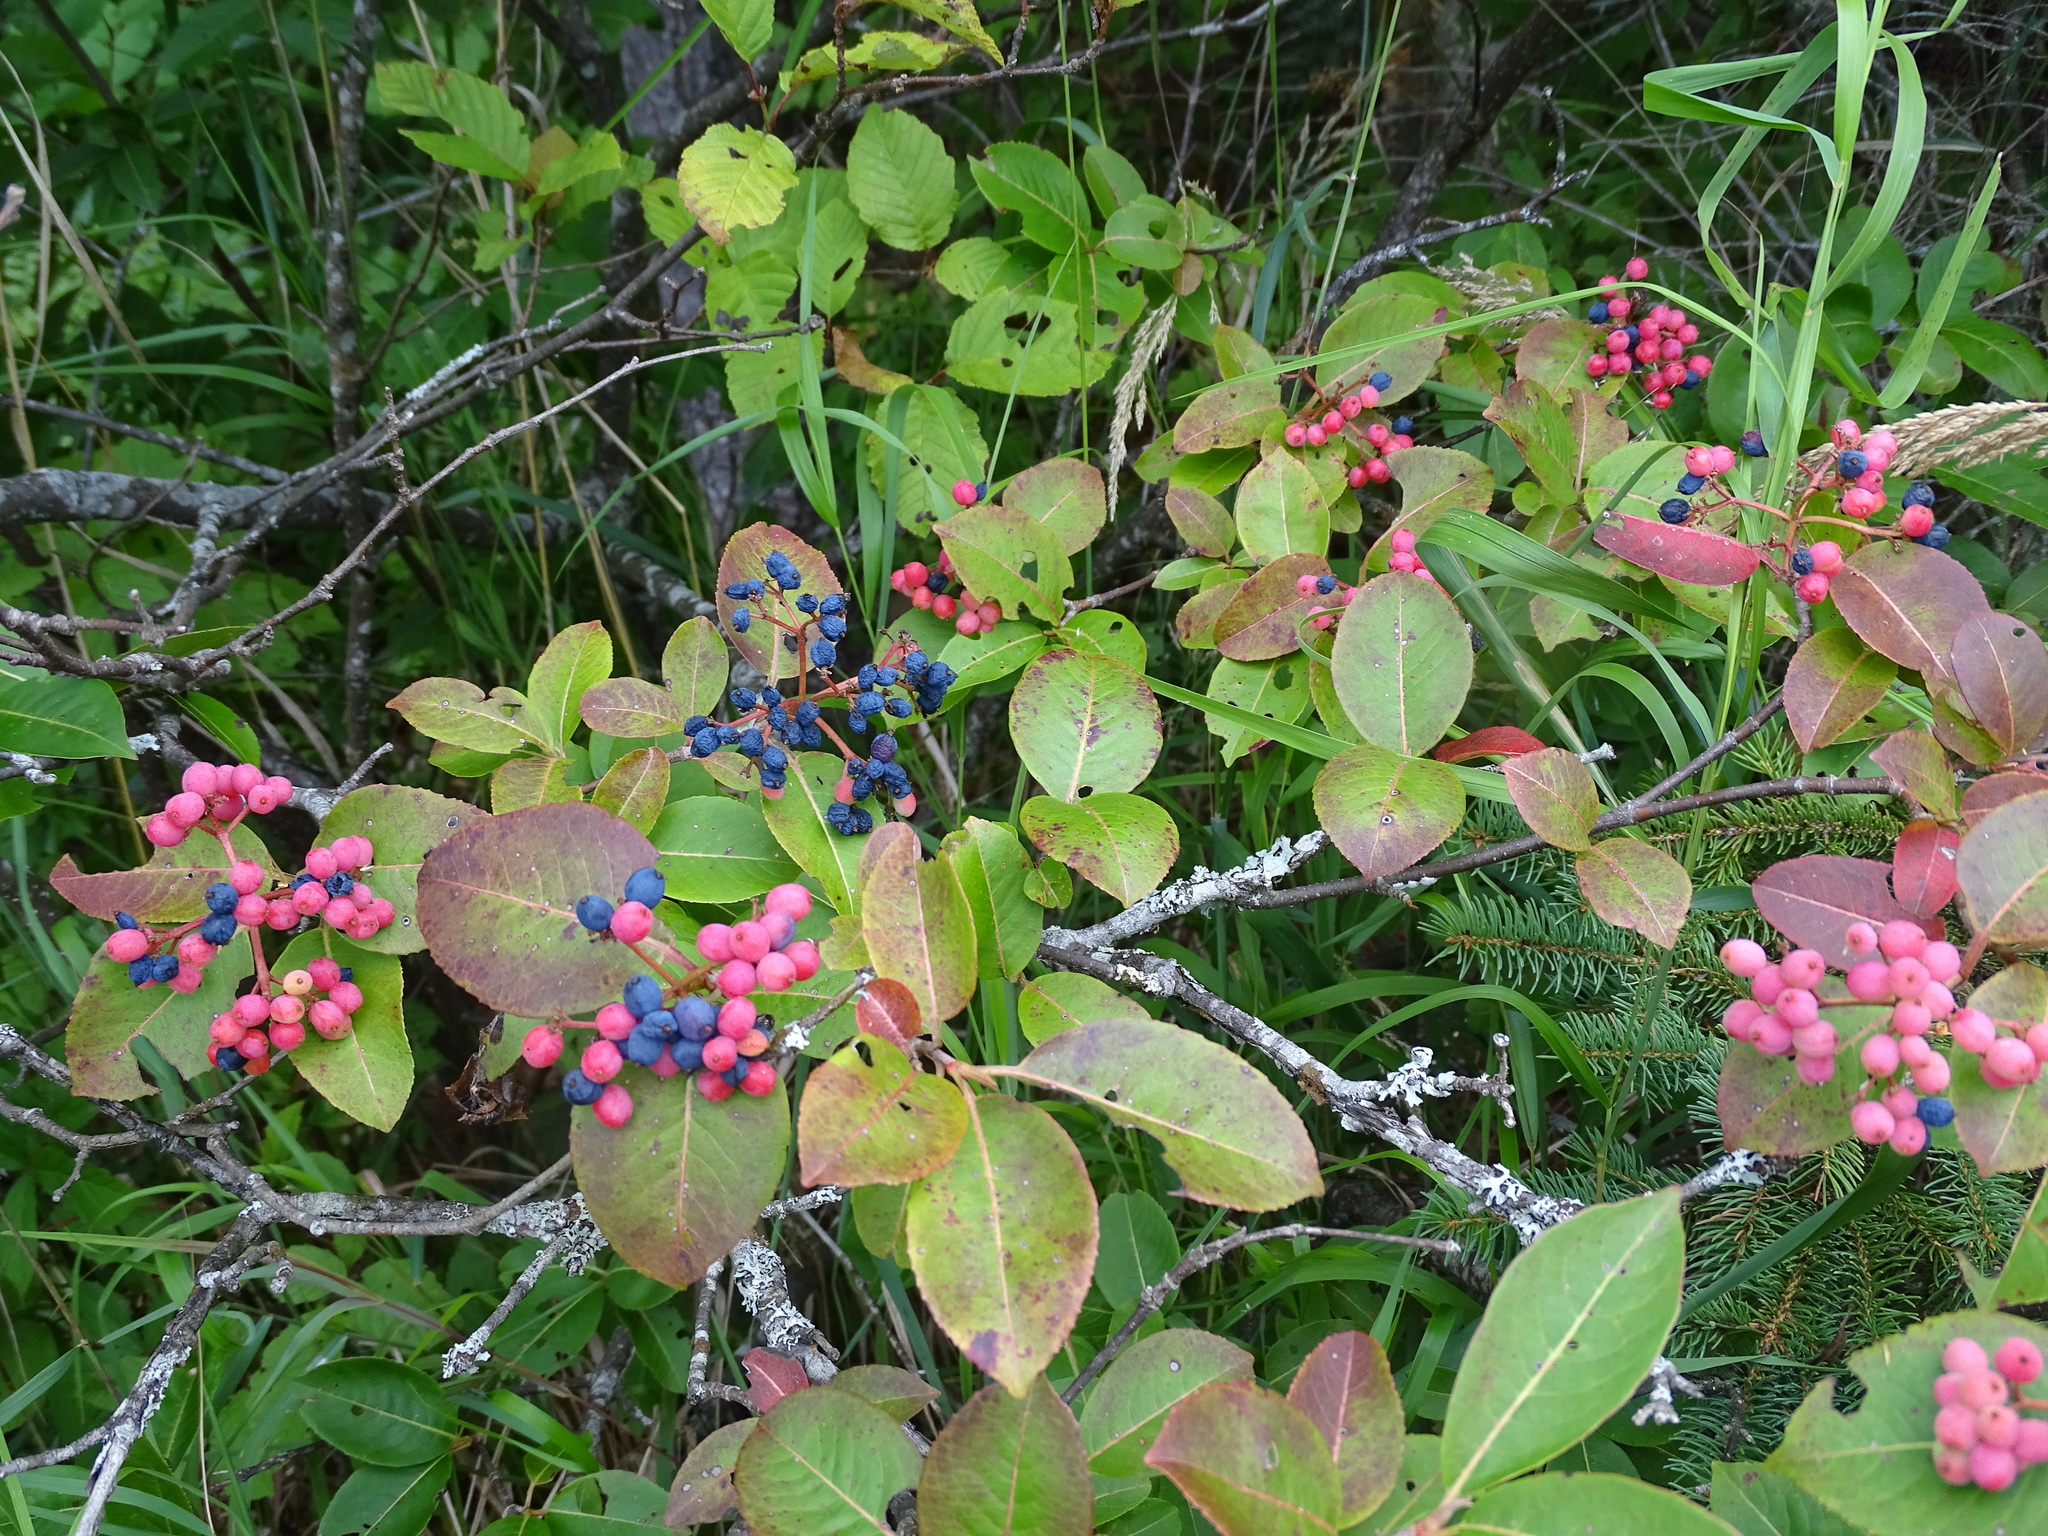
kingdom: Plantae
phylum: Tracheophyta
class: Magnoliopsida
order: Dipsacales
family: Viburnaceae
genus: Viburnum
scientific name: Viburnum cassinoides
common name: Swamp haw
